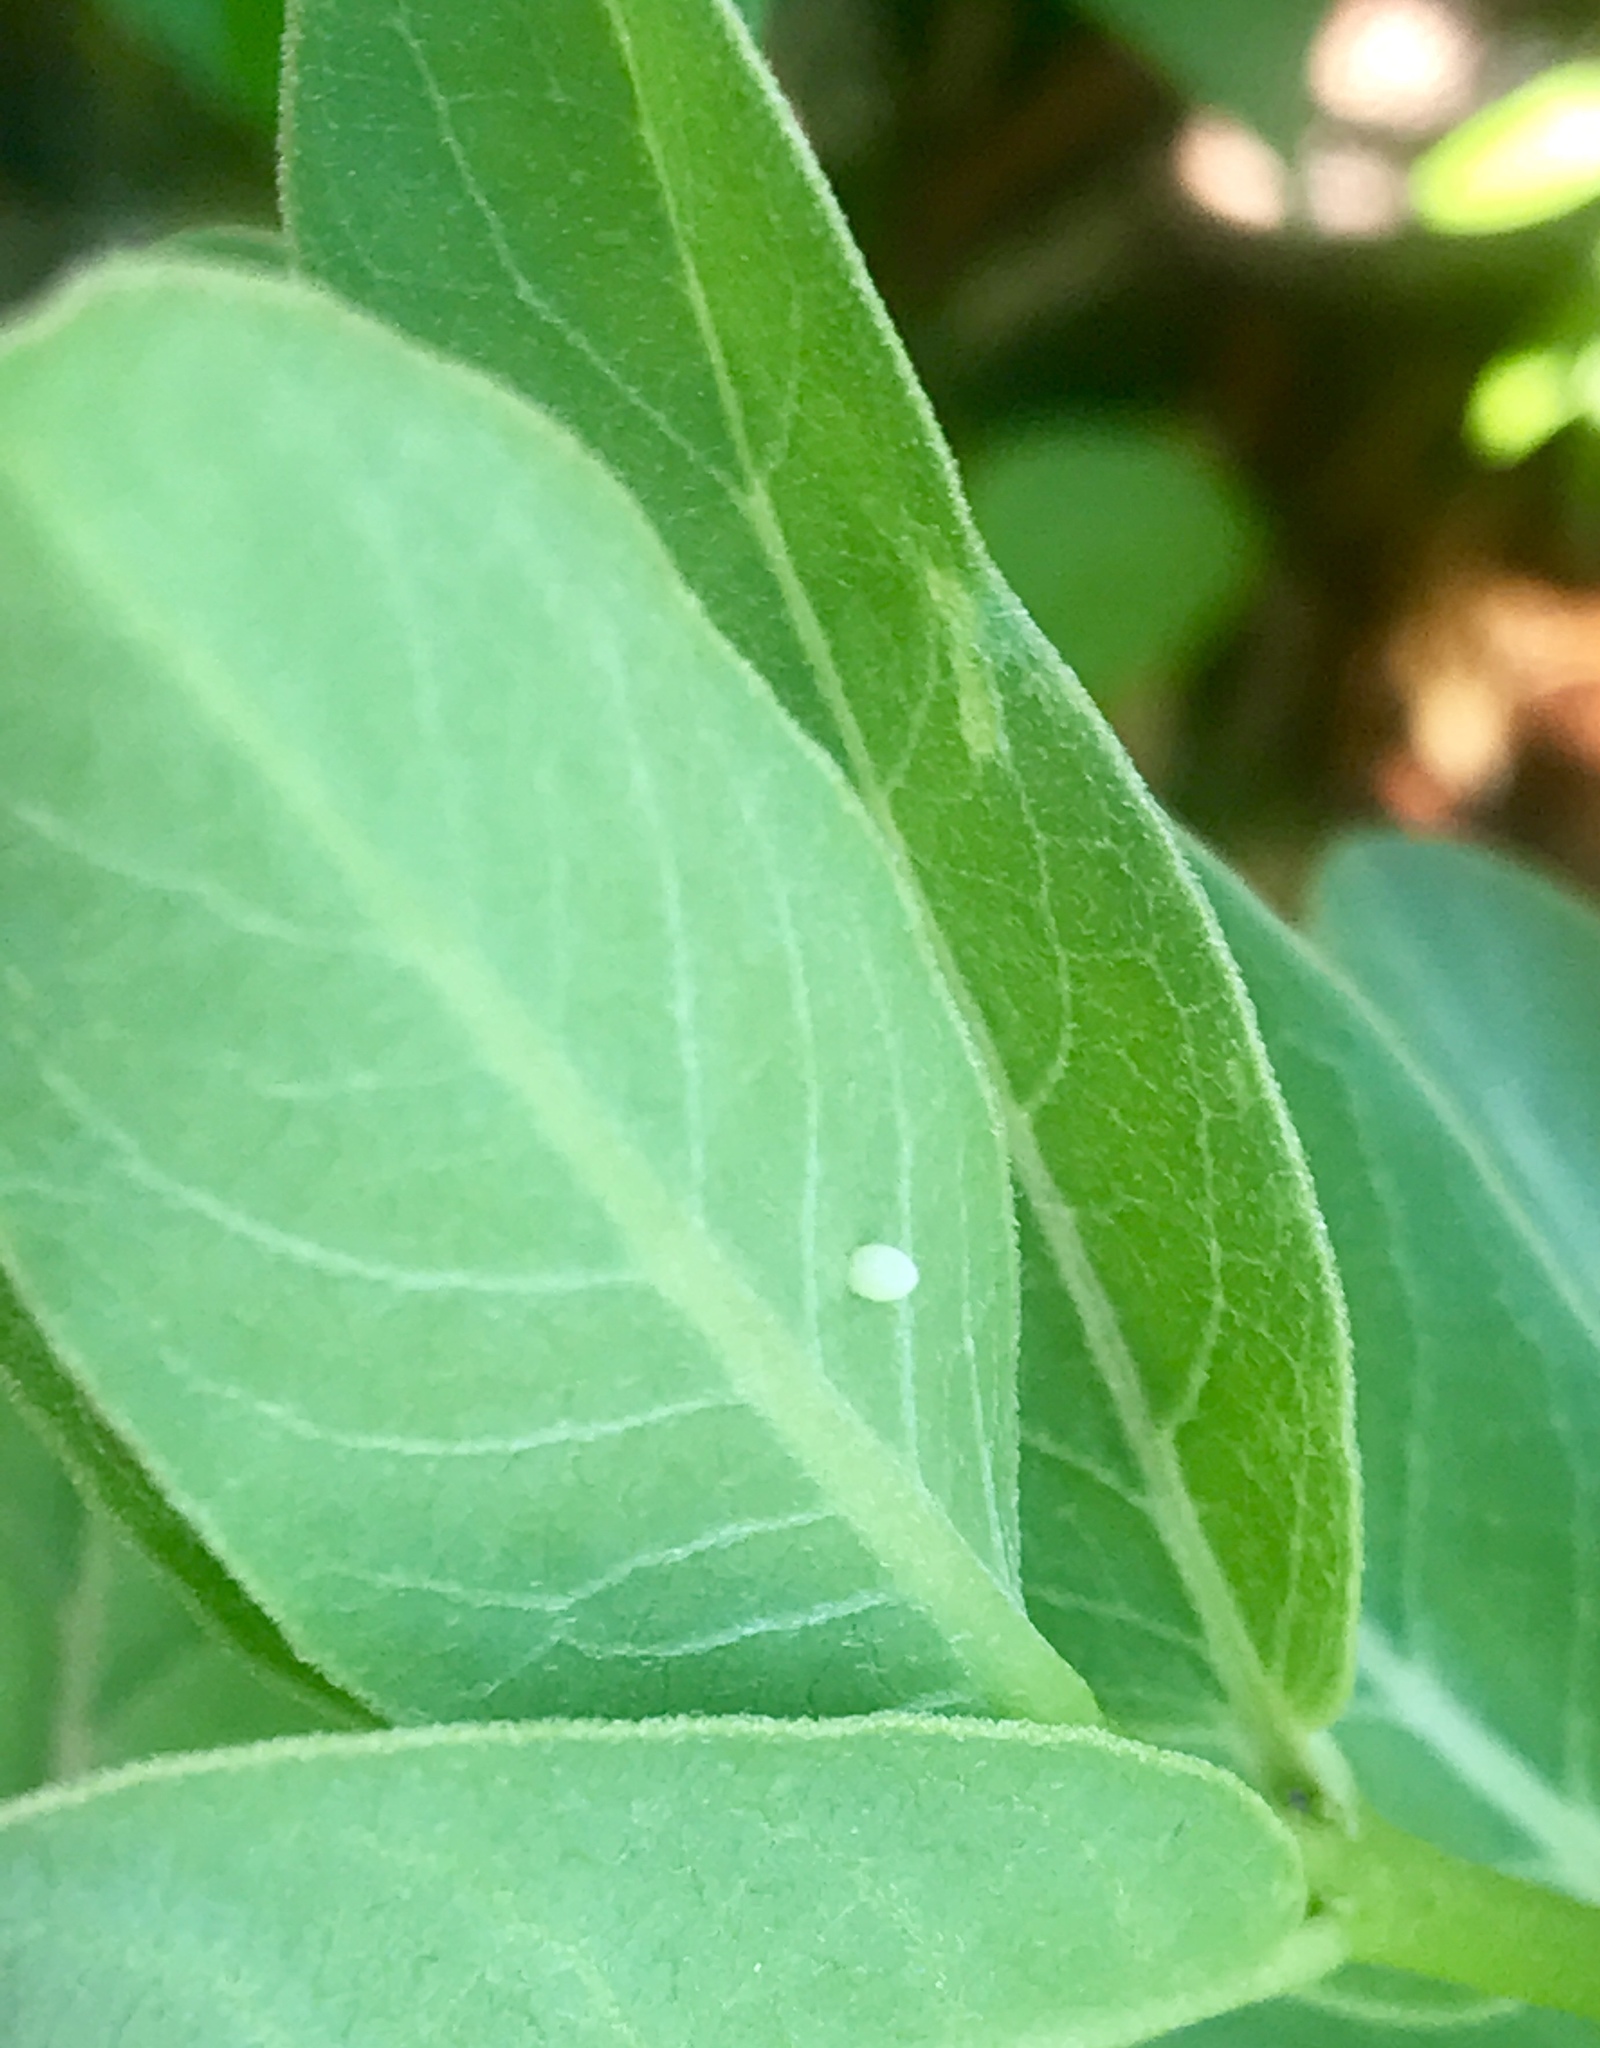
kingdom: Animalia
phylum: Arthropoda
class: Insecta
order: Lepidoptera
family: Nymphalidae
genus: Danaus
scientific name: Danaus plexippus
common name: Monarch
